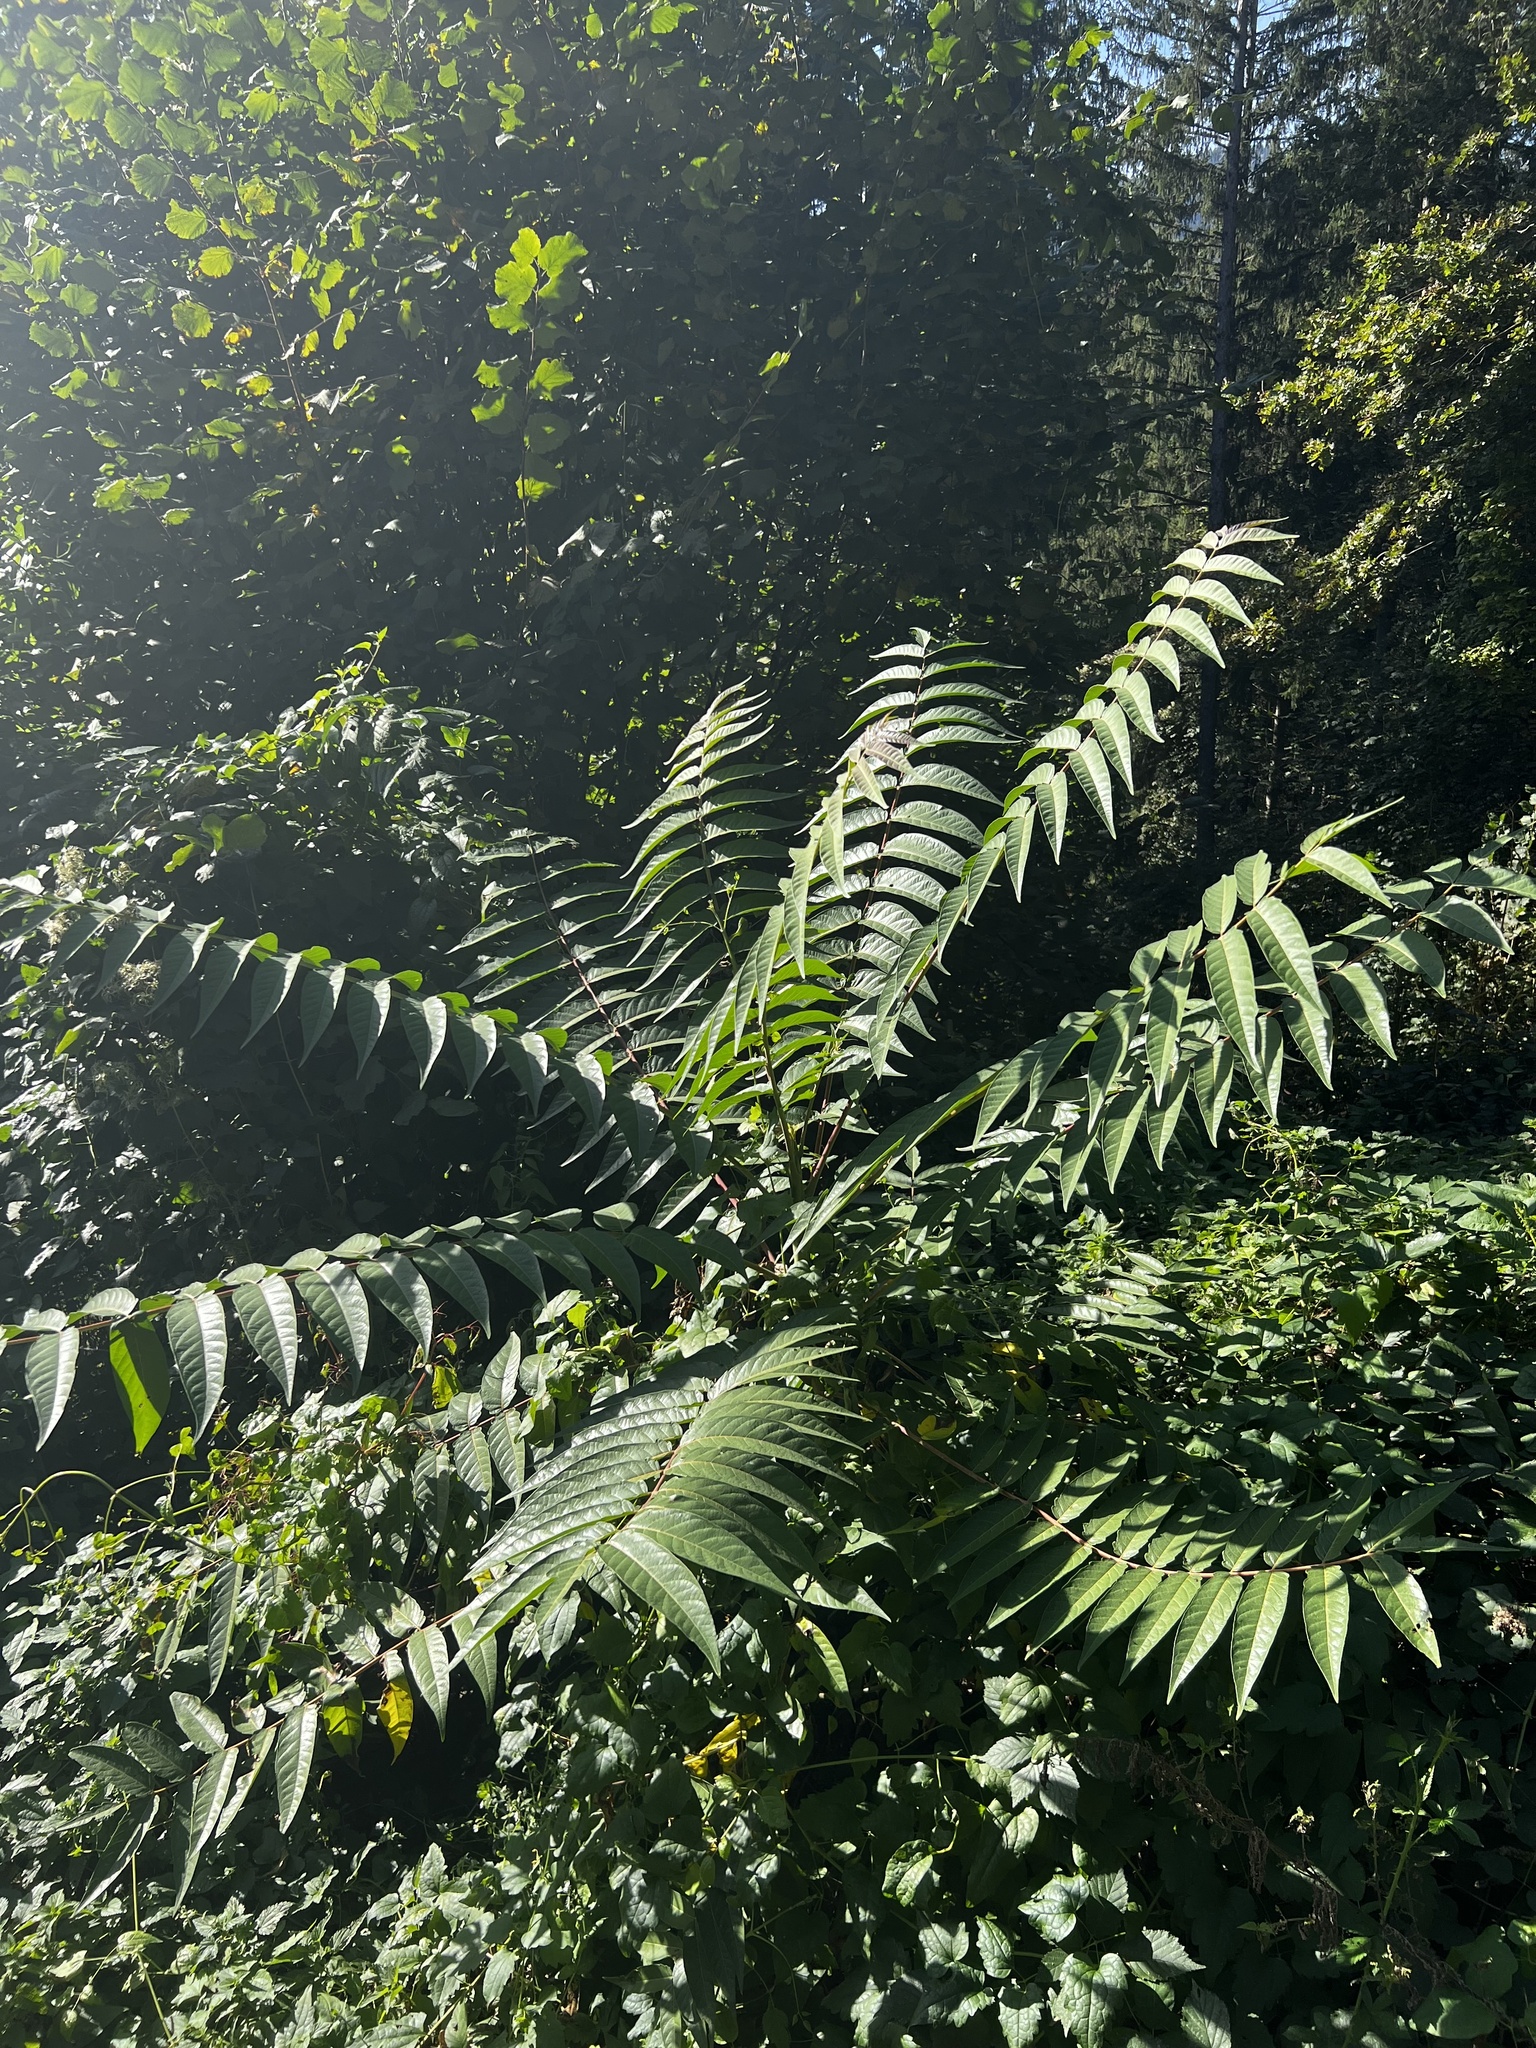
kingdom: Plantae
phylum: Tracheophyta
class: Magnoliopsida
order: Sapindales
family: Simaroubaceae
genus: Ailanthus
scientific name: Ailanthus altissima
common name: Tree-of-heaven
